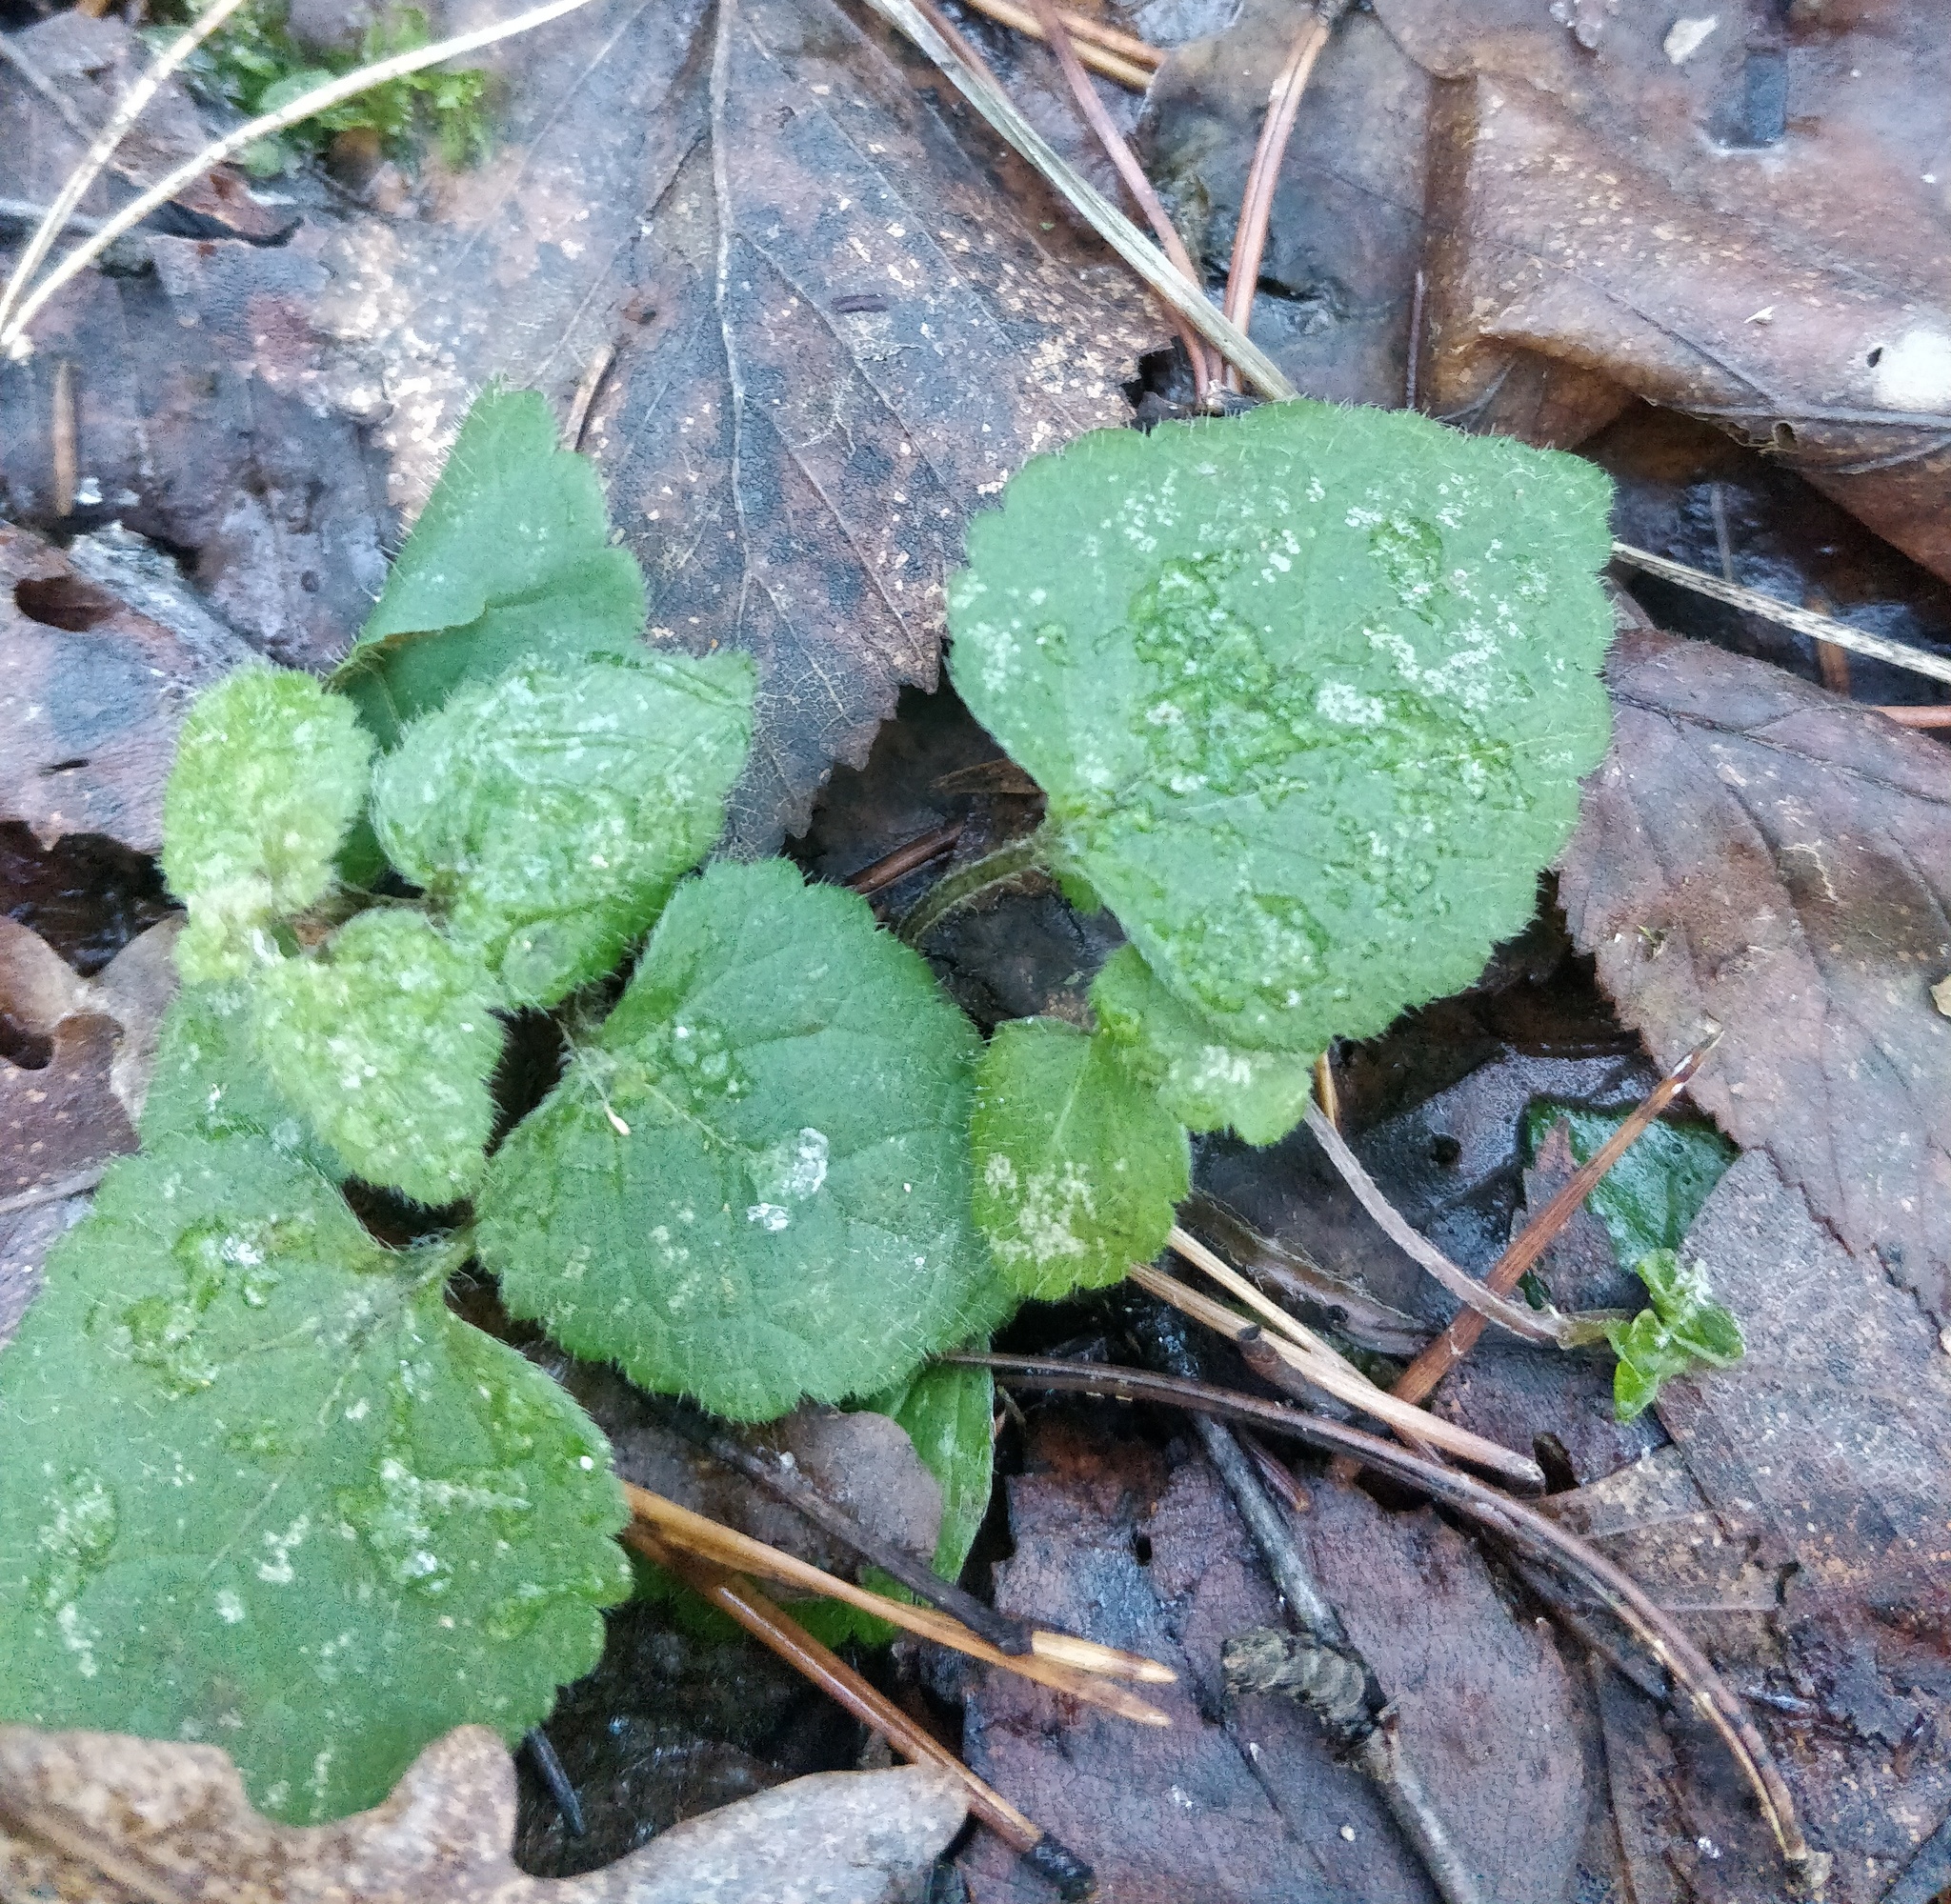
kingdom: Plantae
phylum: Tracheophyta
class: Magnoliopsida
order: Lamiales
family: Lamiaceae
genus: Lamium
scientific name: Lamium galeobdolon
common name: Yellow archangel
